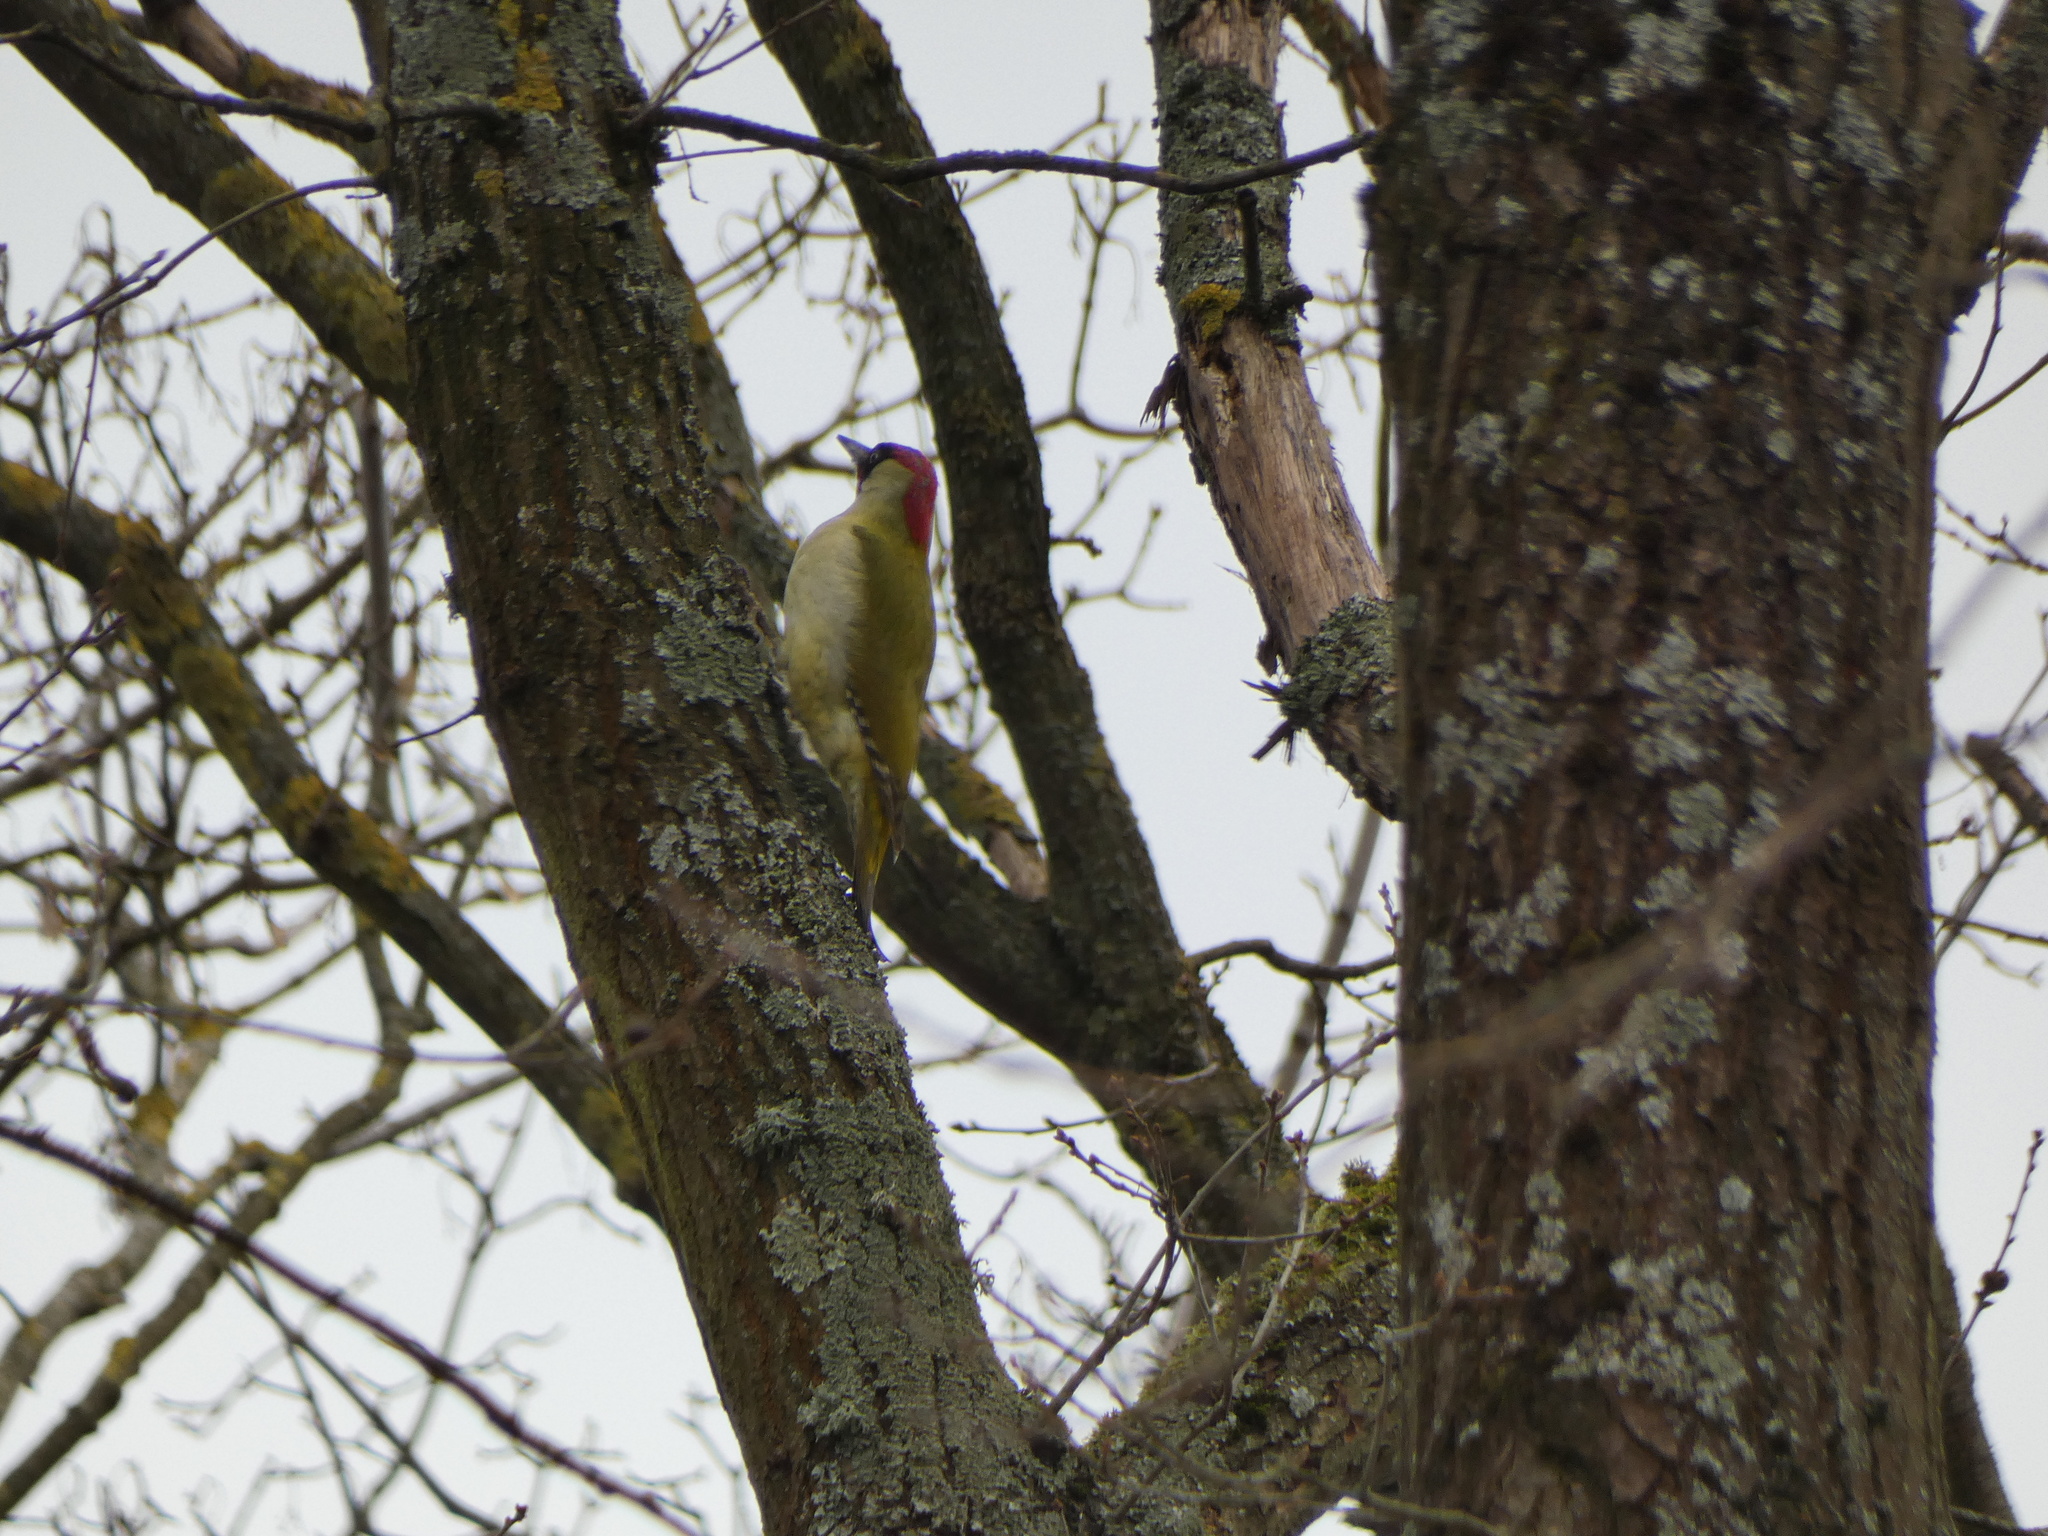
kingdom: Animalia
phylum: Chordata
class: Aves
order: Piciformes
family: Picidae
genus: Picus
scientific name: Picus viridis
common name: European green woodpecker
